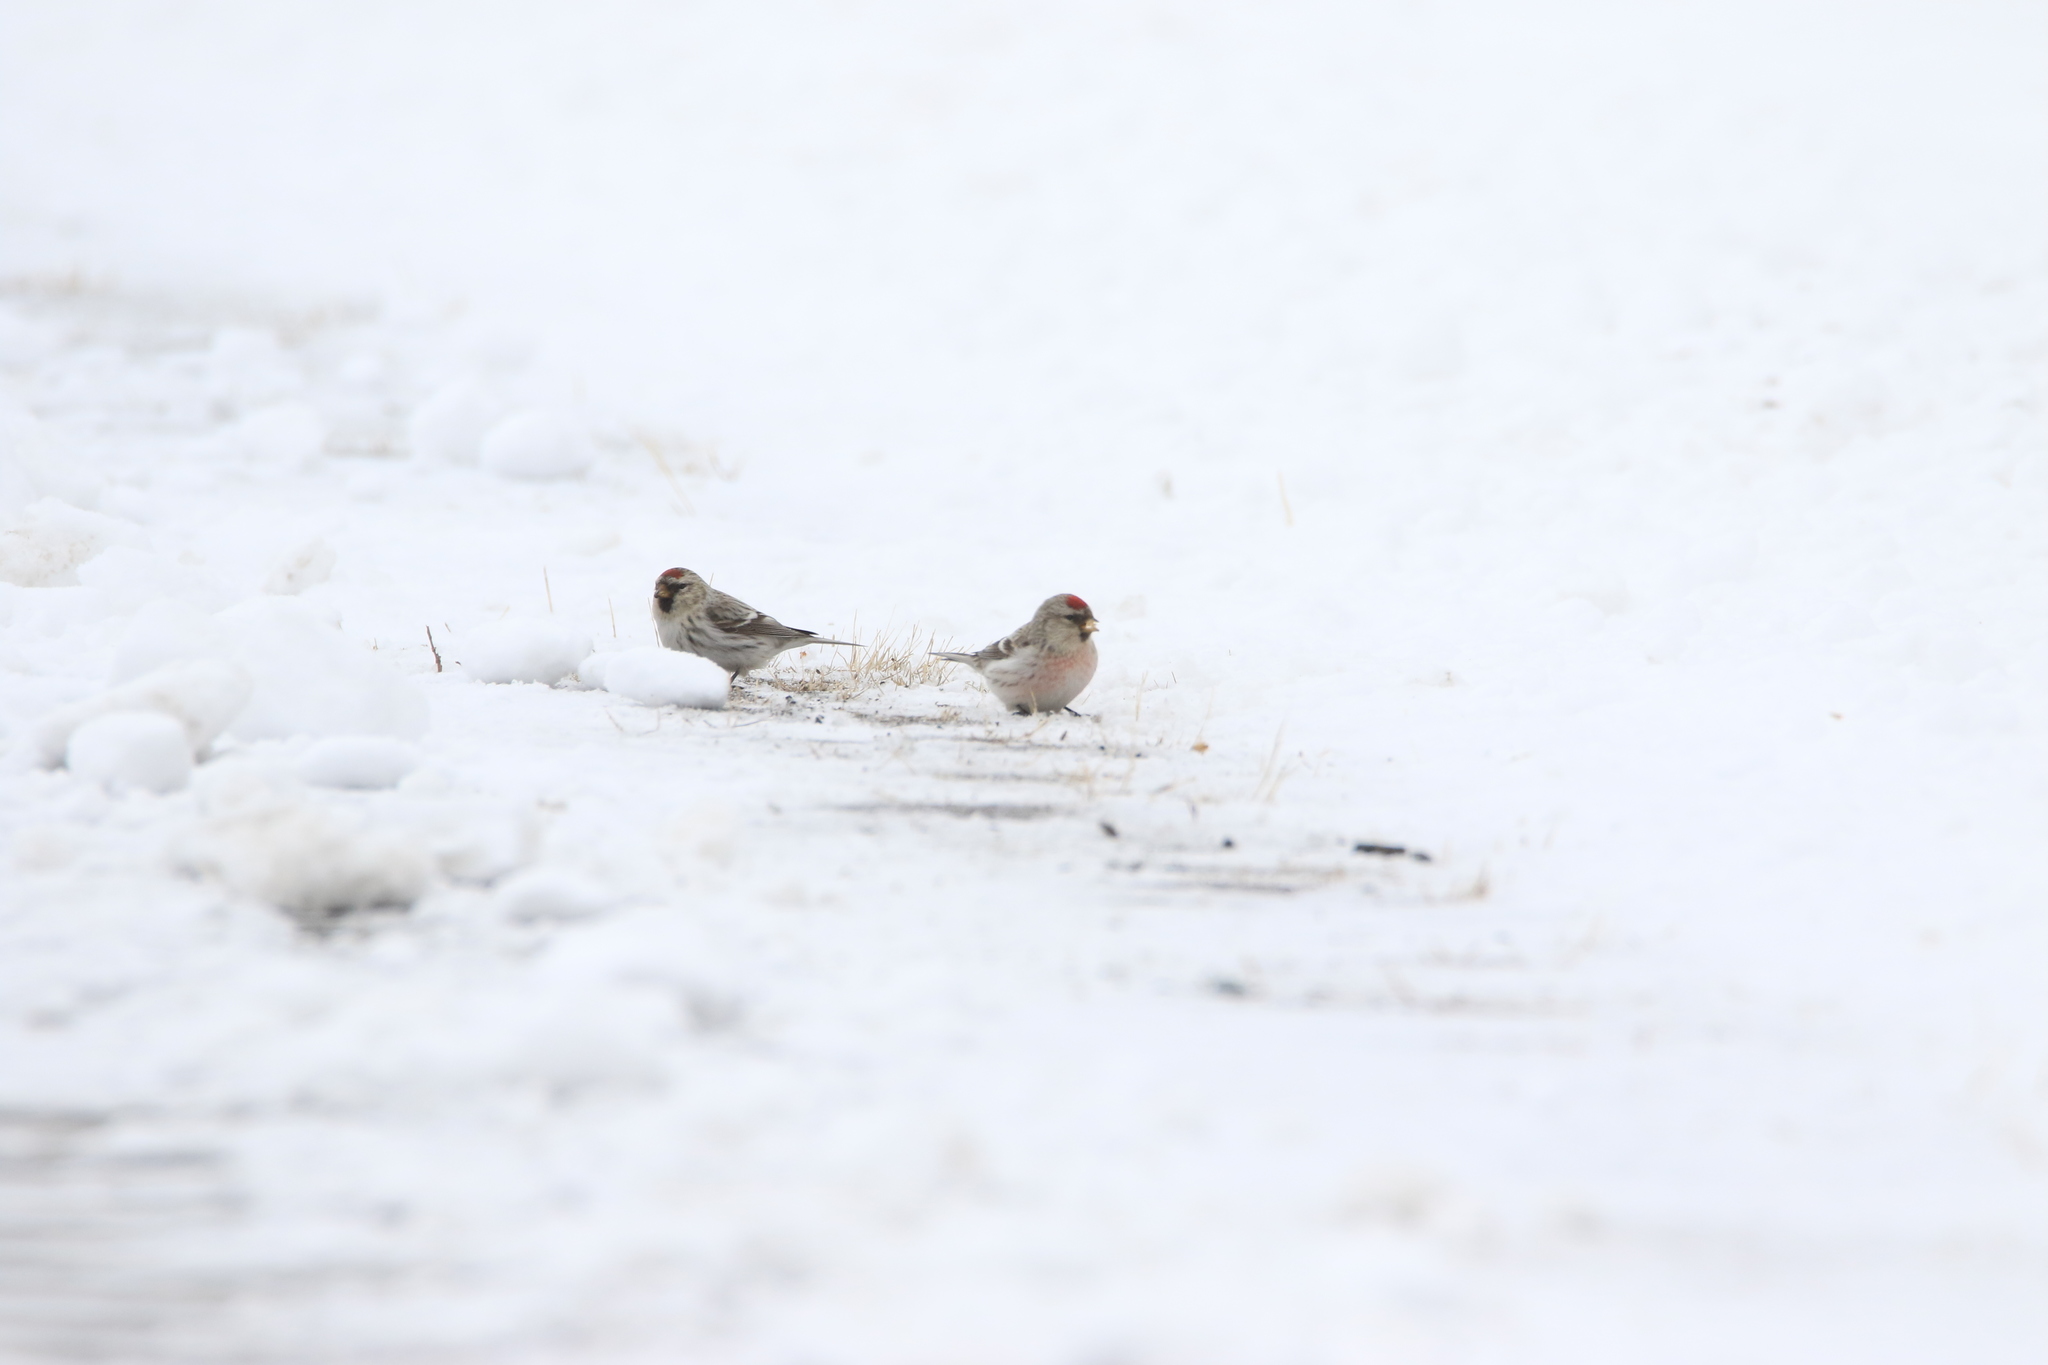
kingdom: Animalia
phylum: Chordata
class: Aves
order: Passeriformes
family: Fringillidae
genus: Acanthis
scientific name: Acanthis flammea
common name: Common redpoll
